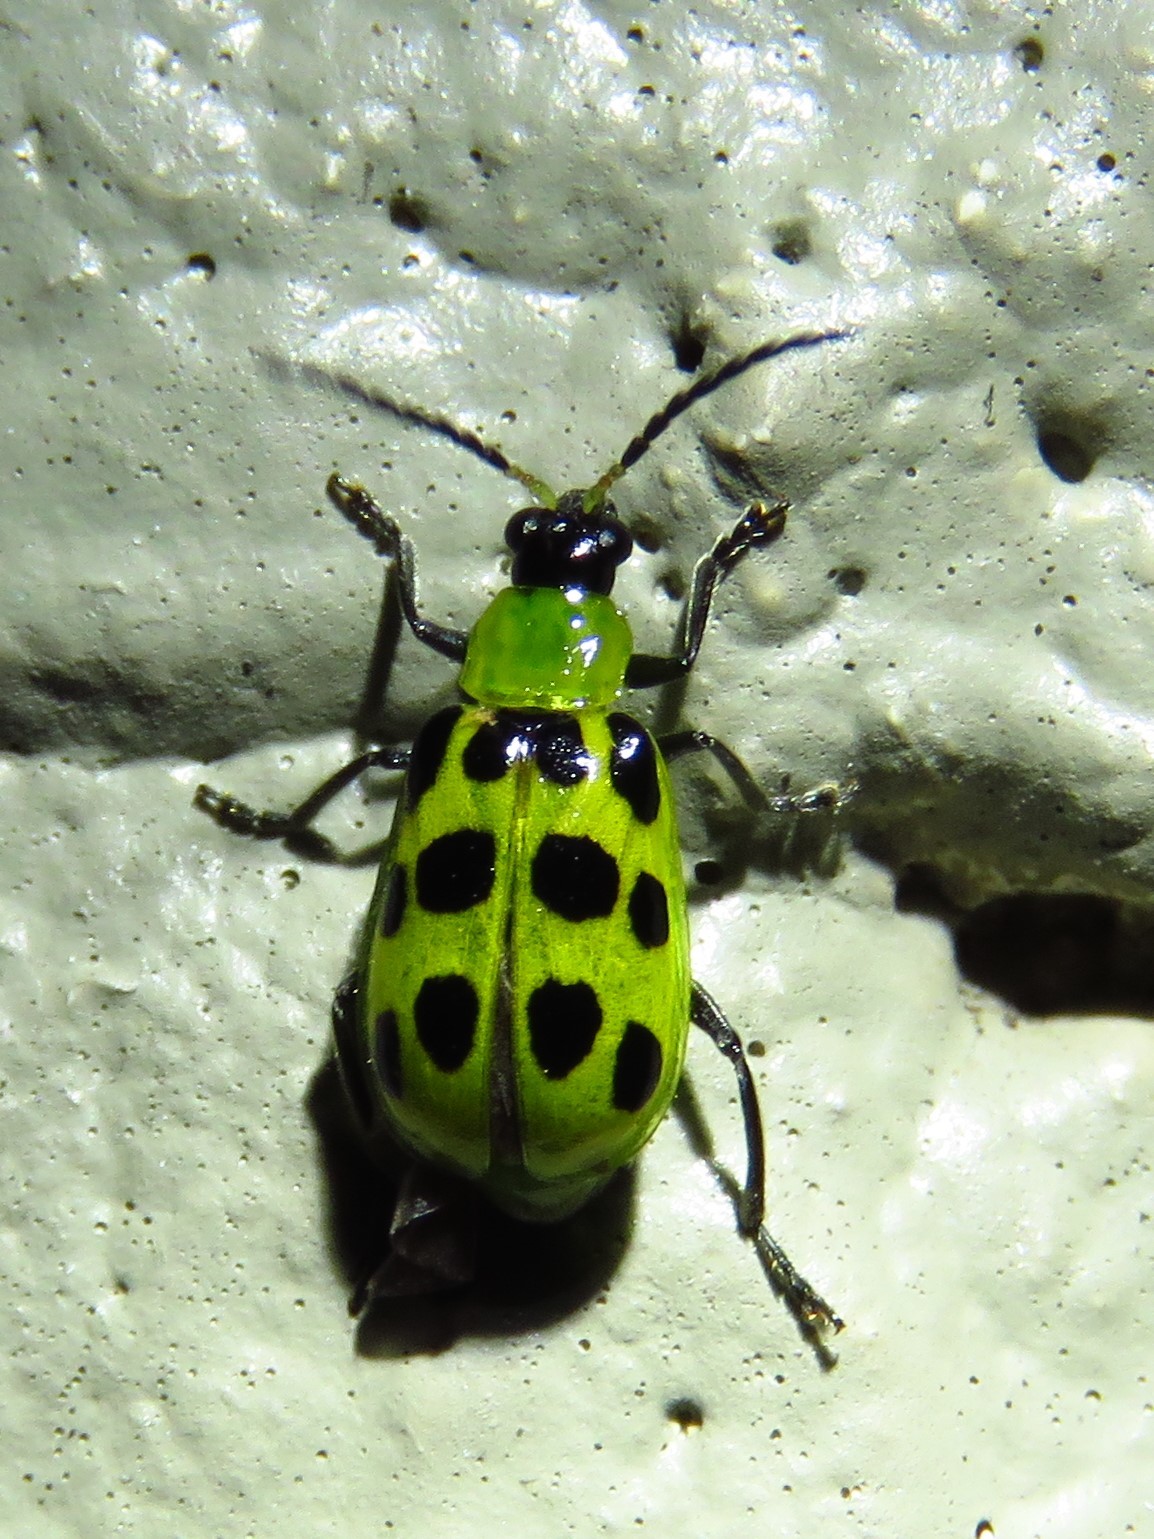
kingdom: Animalia
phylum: Arthropoda
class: Insecta
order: Coleoptera
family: Chrysomelidae
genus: Diabrotica
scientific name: Diabrotica undecimpunctata
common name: Spotted cucumber beetle
